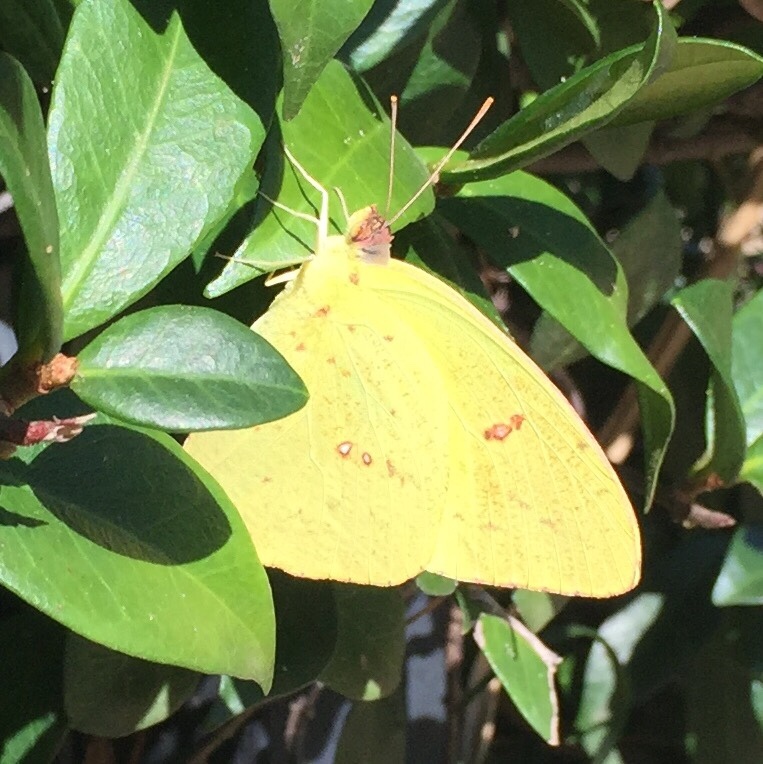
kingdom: Animalia
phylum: Arthropoda
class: Insecta
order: Lepidoptera
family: Pieridae
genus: Phoebis
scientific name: Phoebis sennae
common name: Cloudless sulphur
